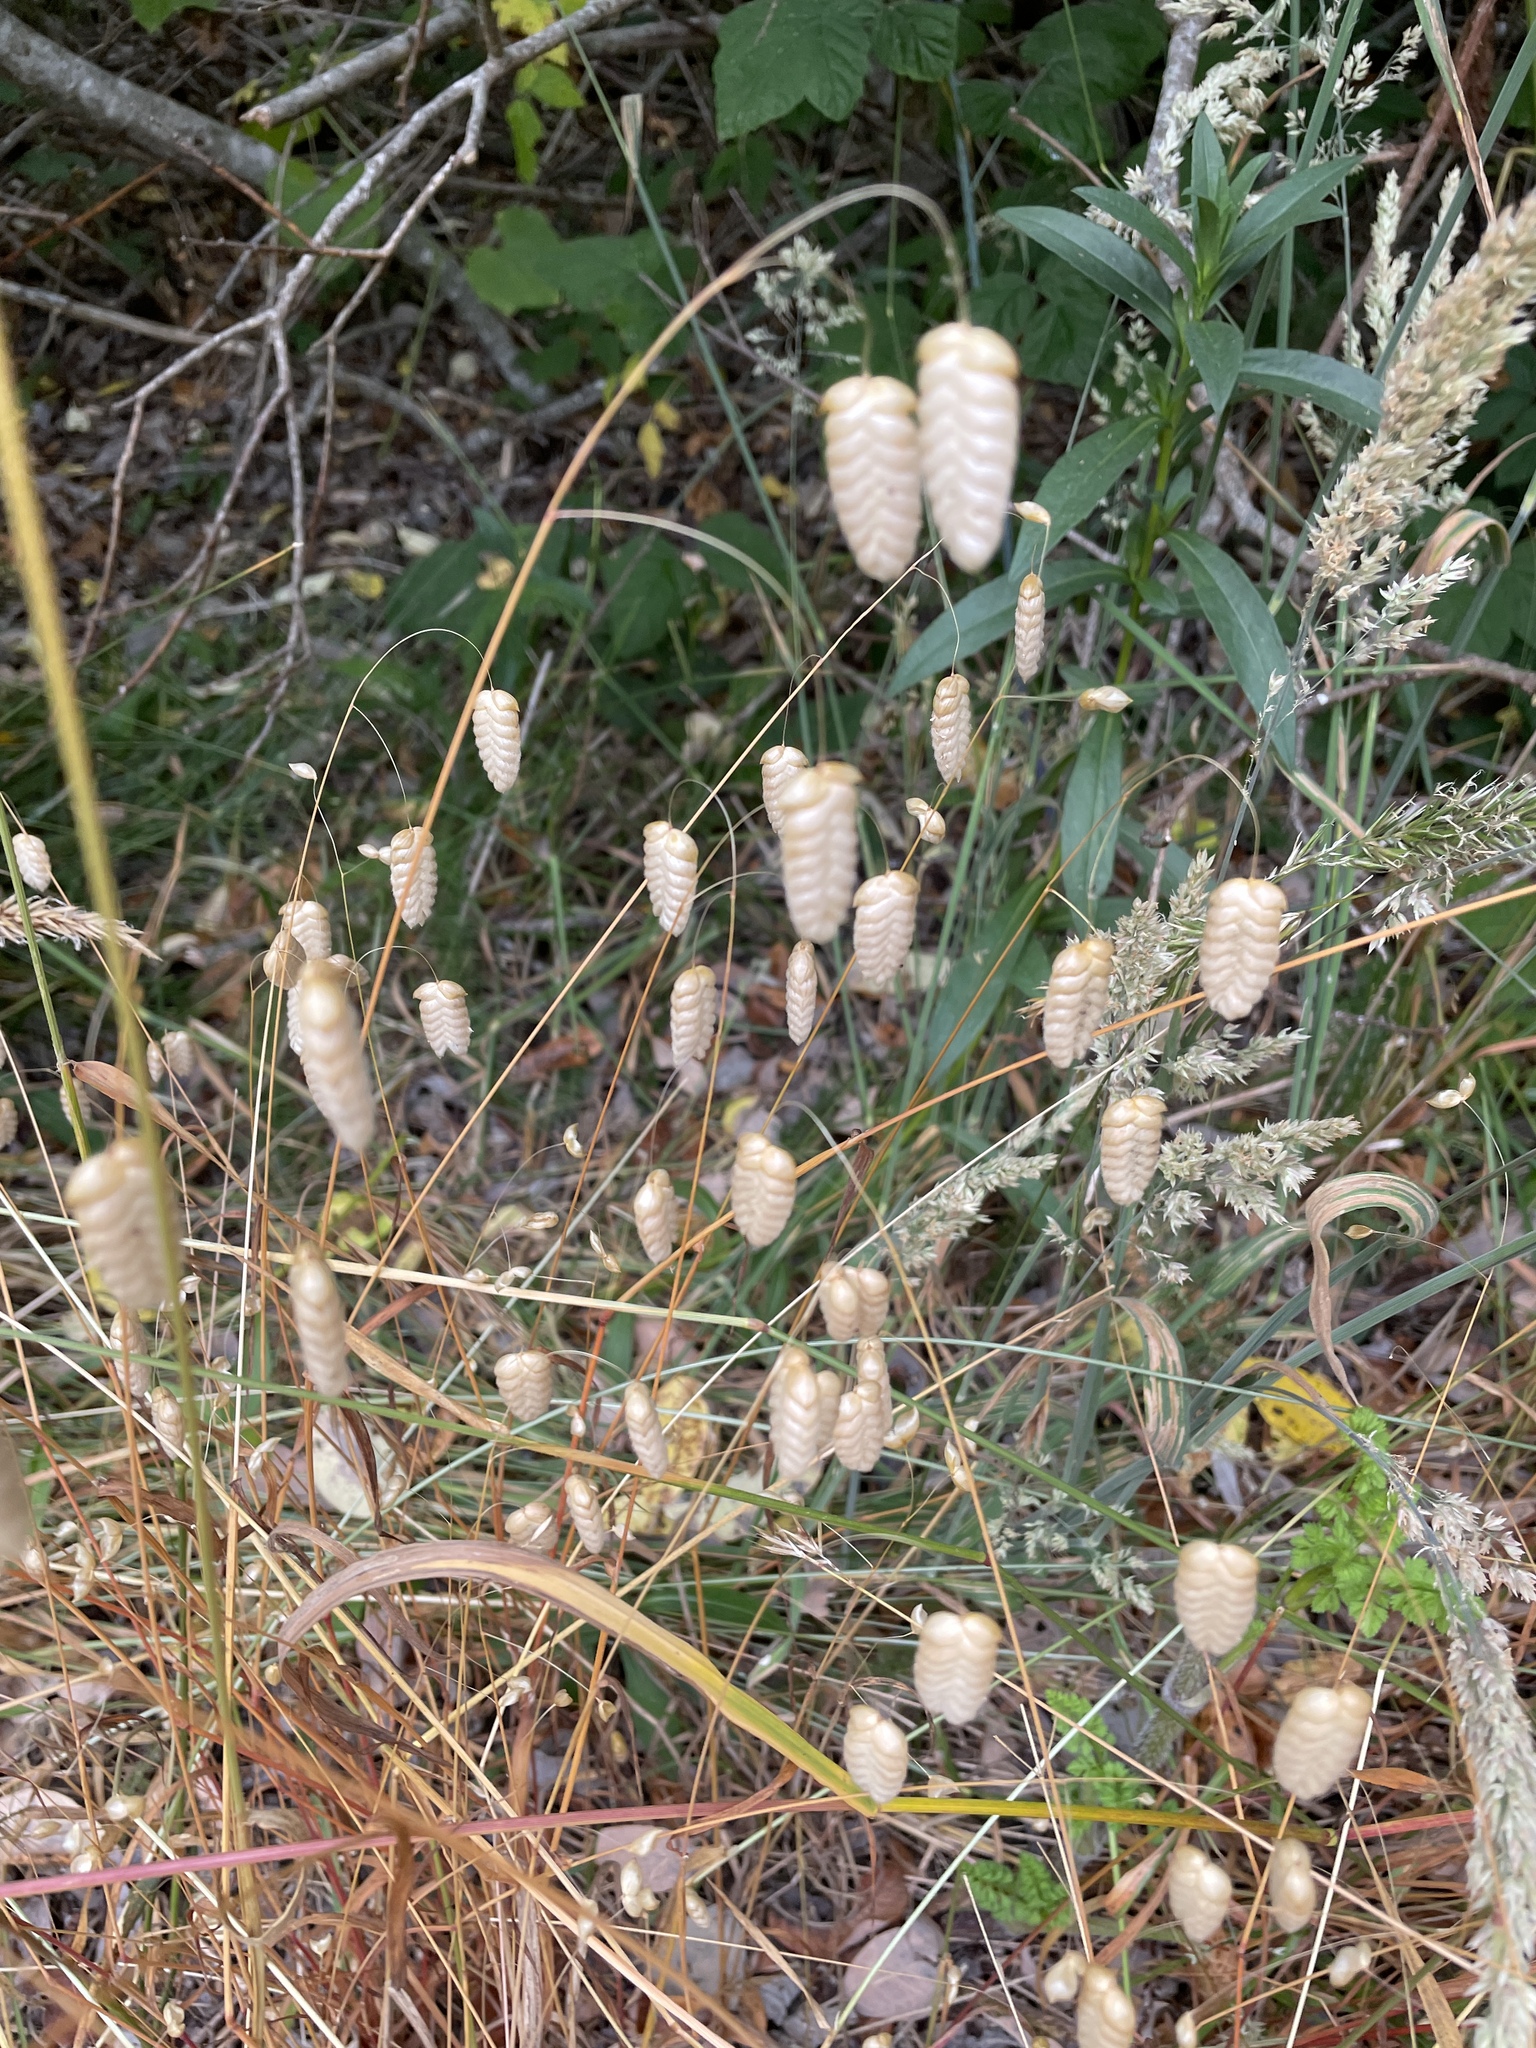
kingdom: Plantae
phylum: Tracheophyta
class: Liliopsida
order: Poales
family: Poaceae
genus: Briza
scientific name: Briza maxima
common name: Big quakinggrass
